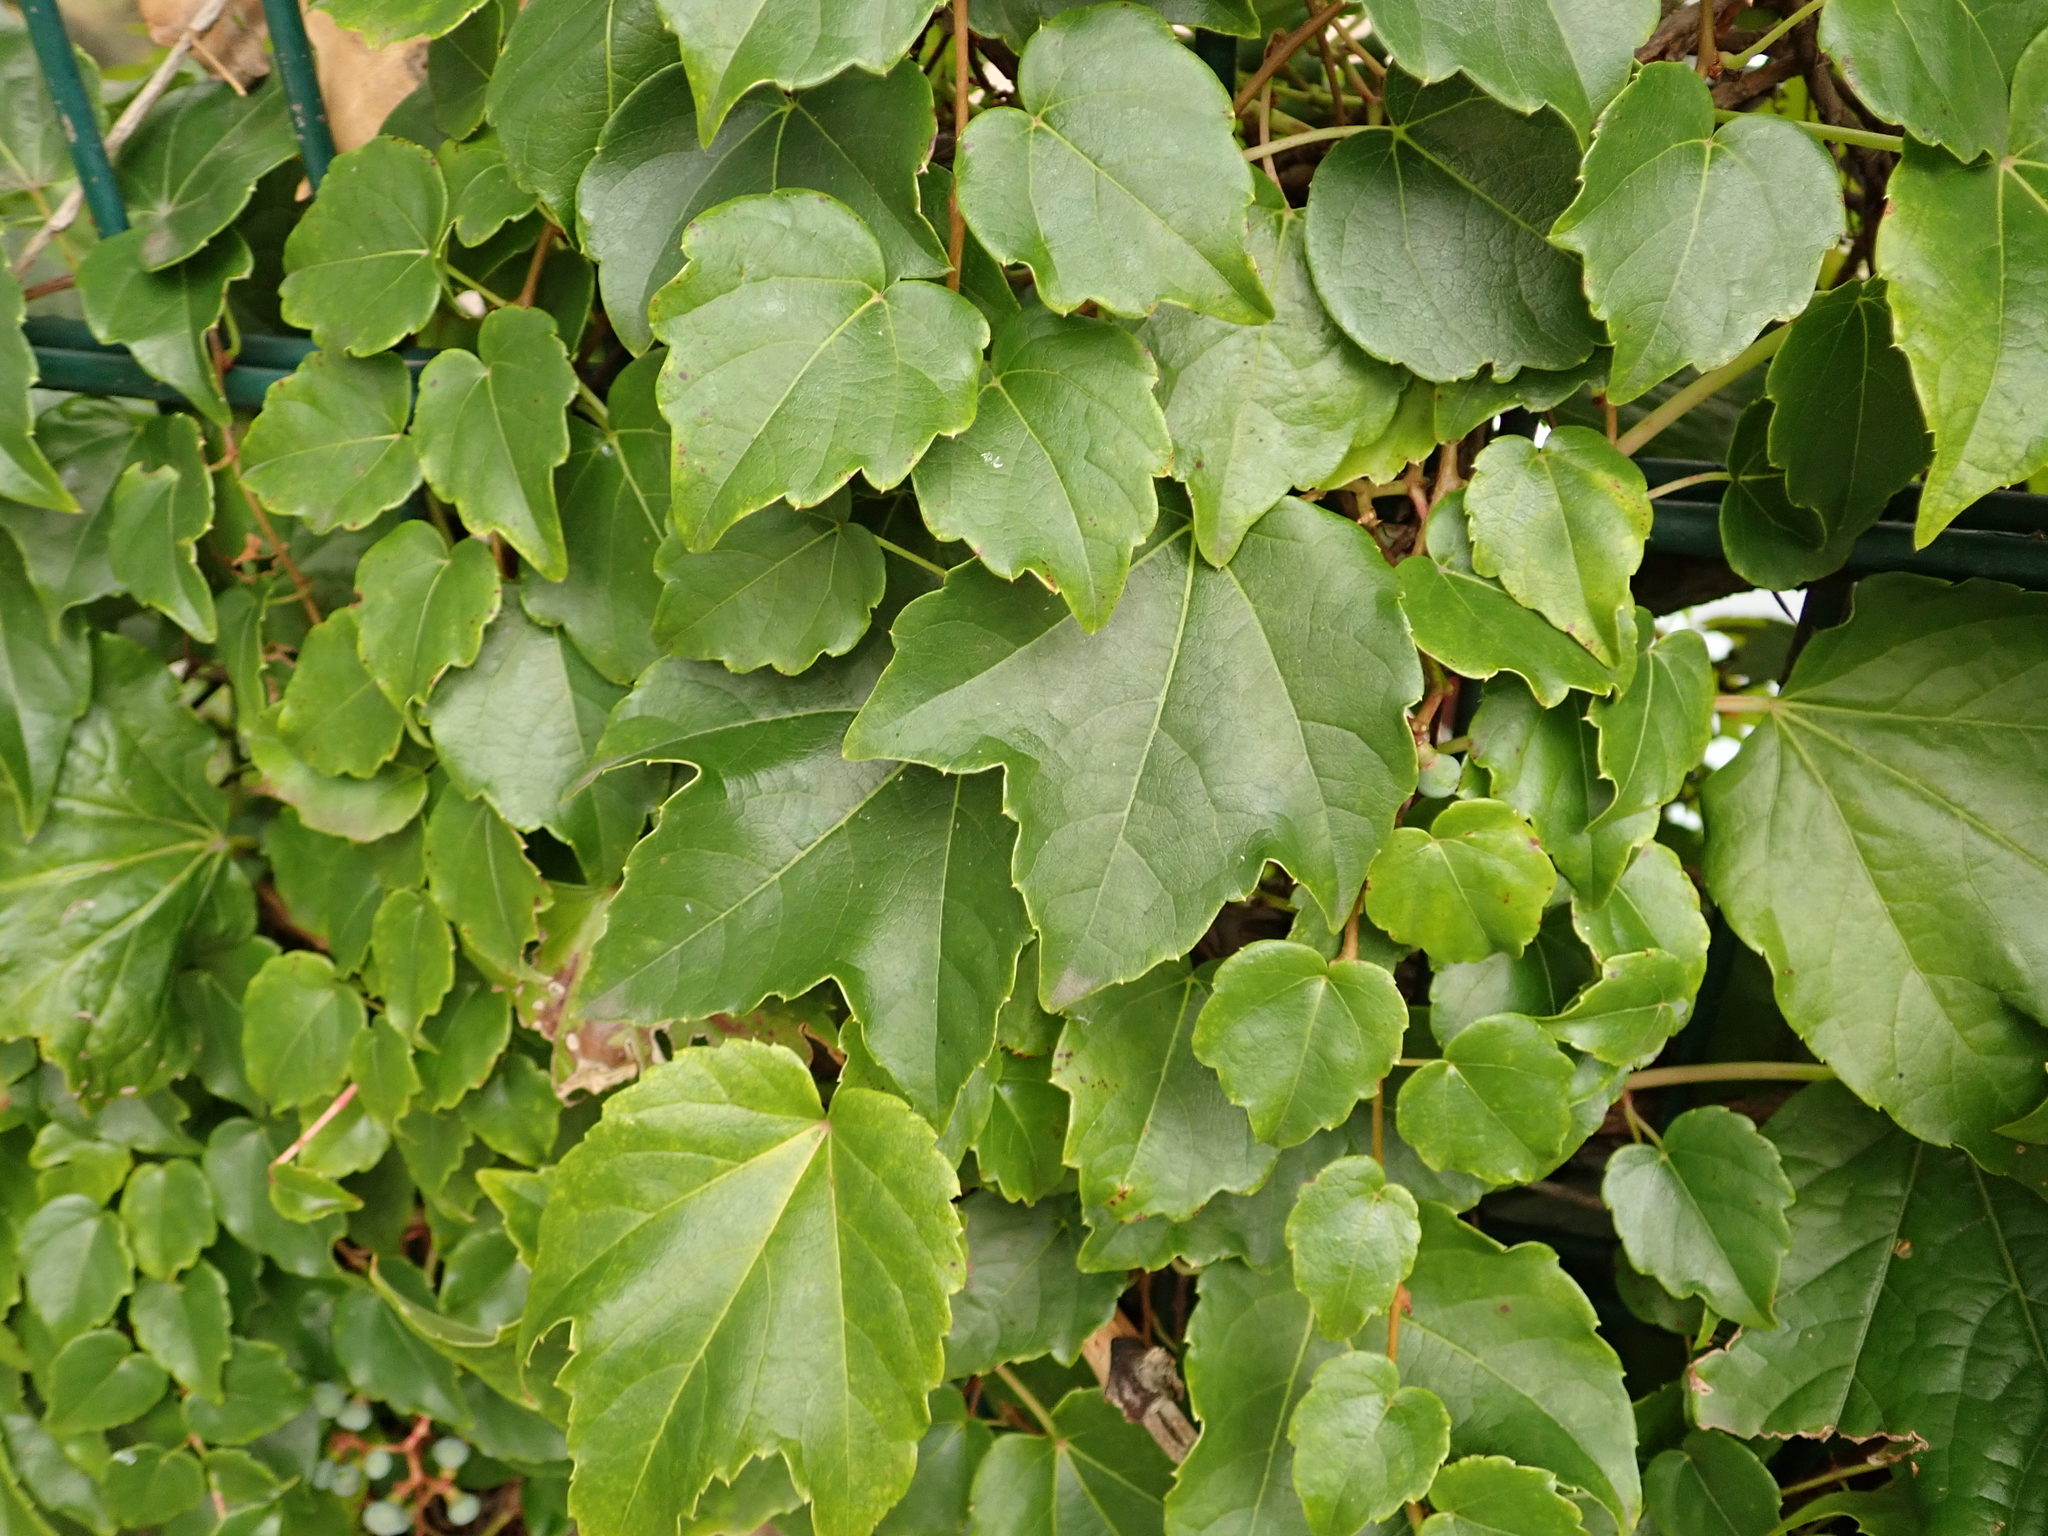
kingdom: Plantae
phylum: Tracheophyta
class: Magnoliopsida
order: Vitales
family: Vitaceae
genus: Parthenocissus
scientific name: Parthenocissus tricuspidata
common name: Boston ivy
